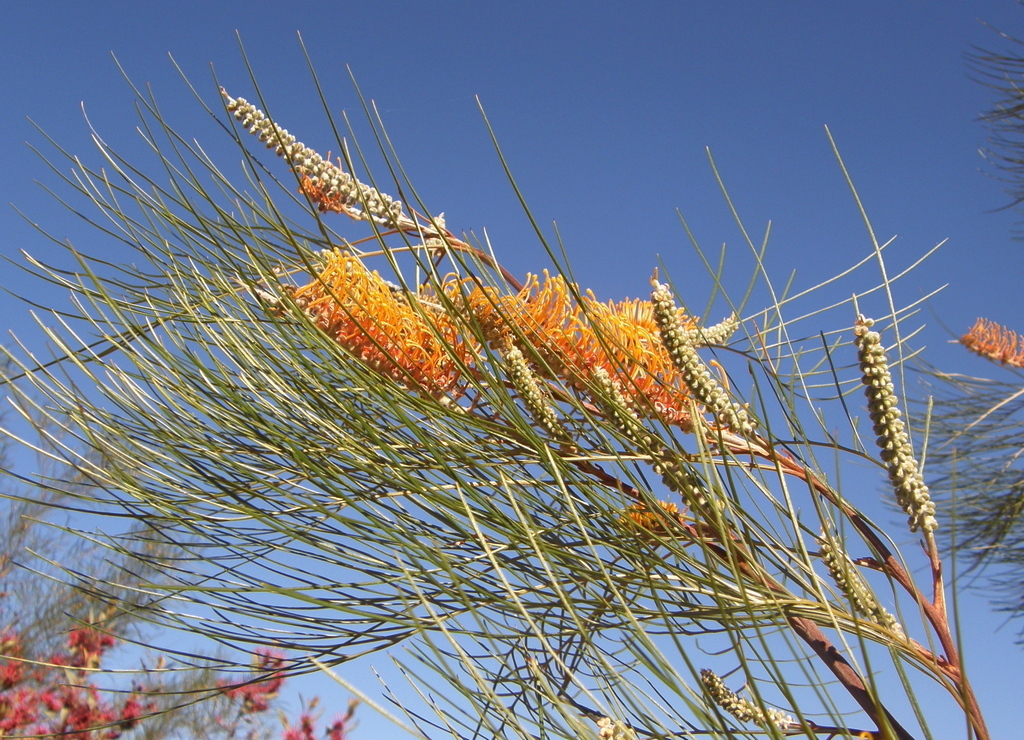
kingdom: Plantae
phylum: Tracheophyta
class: Magnoliopsida
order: Proteales
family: Proteaceae
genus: Grevillea
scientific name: Grevillea pteridifolia
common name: Golden grevillea
